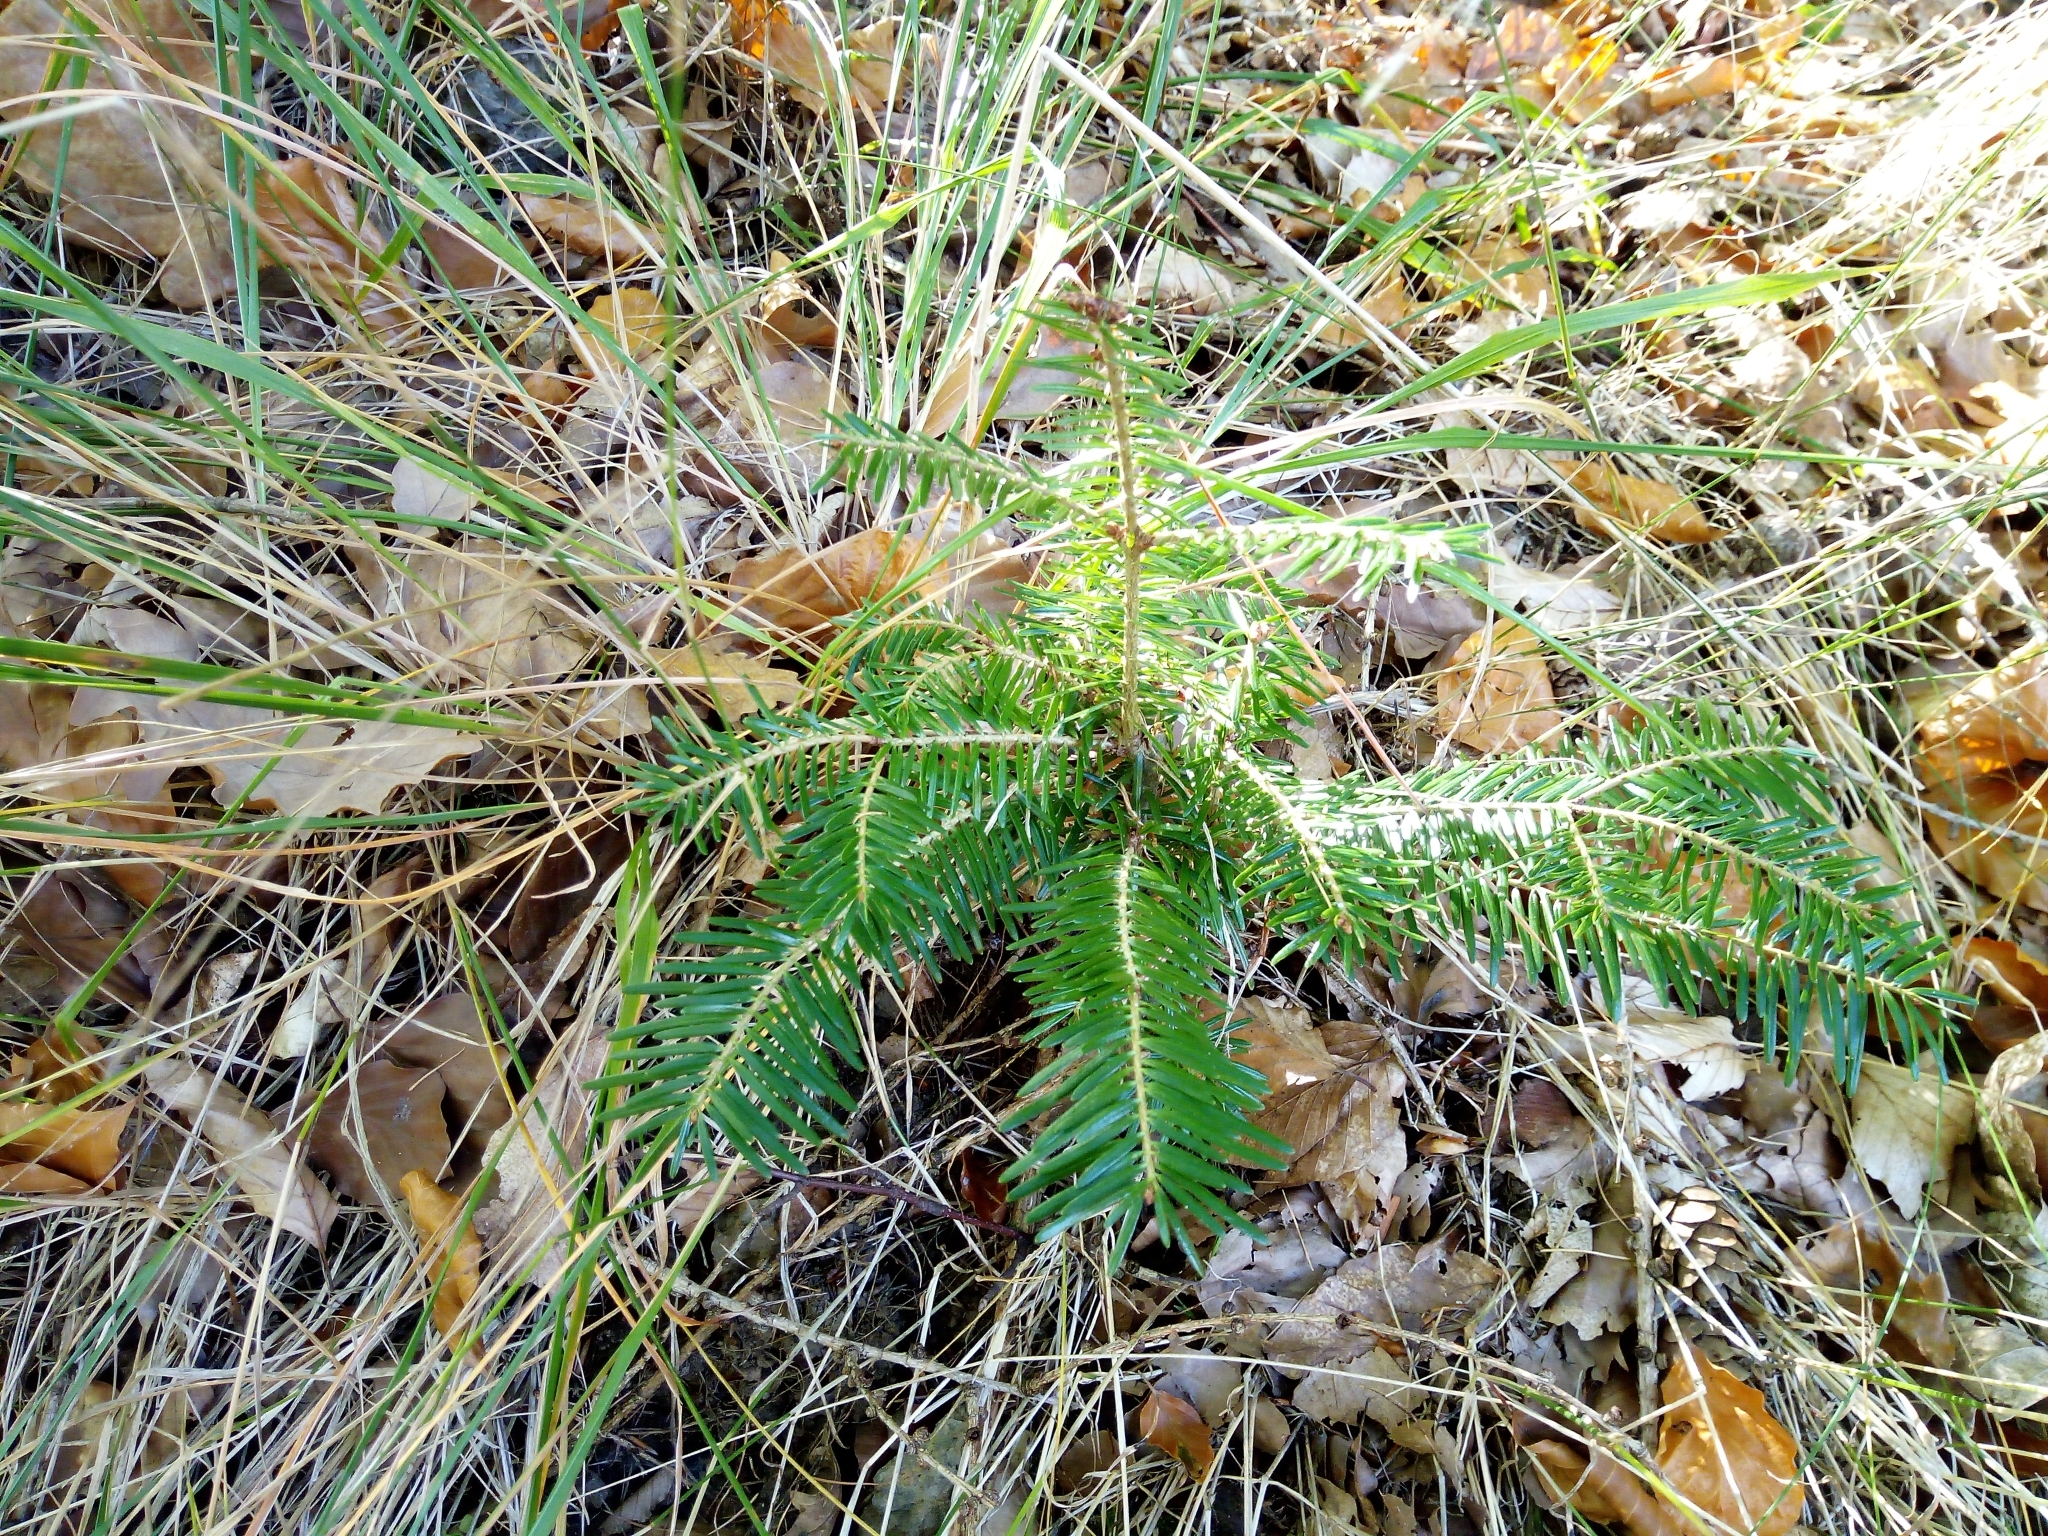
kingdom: Plantae
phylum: Tracheophyta
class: Pinopsida
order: Pinales
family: Pinaceae
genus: Abies
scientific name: Abies alba
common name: Silver fir
